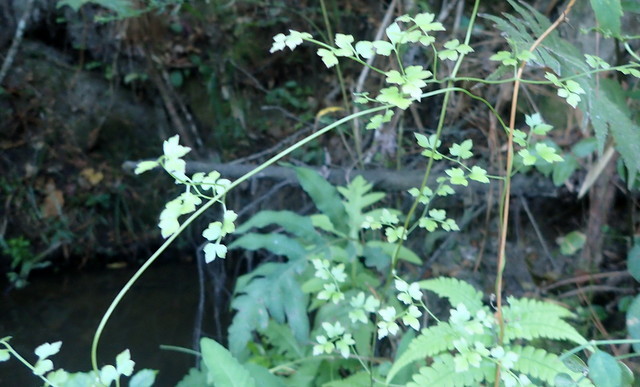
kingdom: Plantae
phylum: Tracheophyta
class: Polypodiopsida
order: Schizaeales
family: Lygodiaceae
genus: Lygodium
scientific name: Lygodium japonicum
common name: Japanese climbing fern
